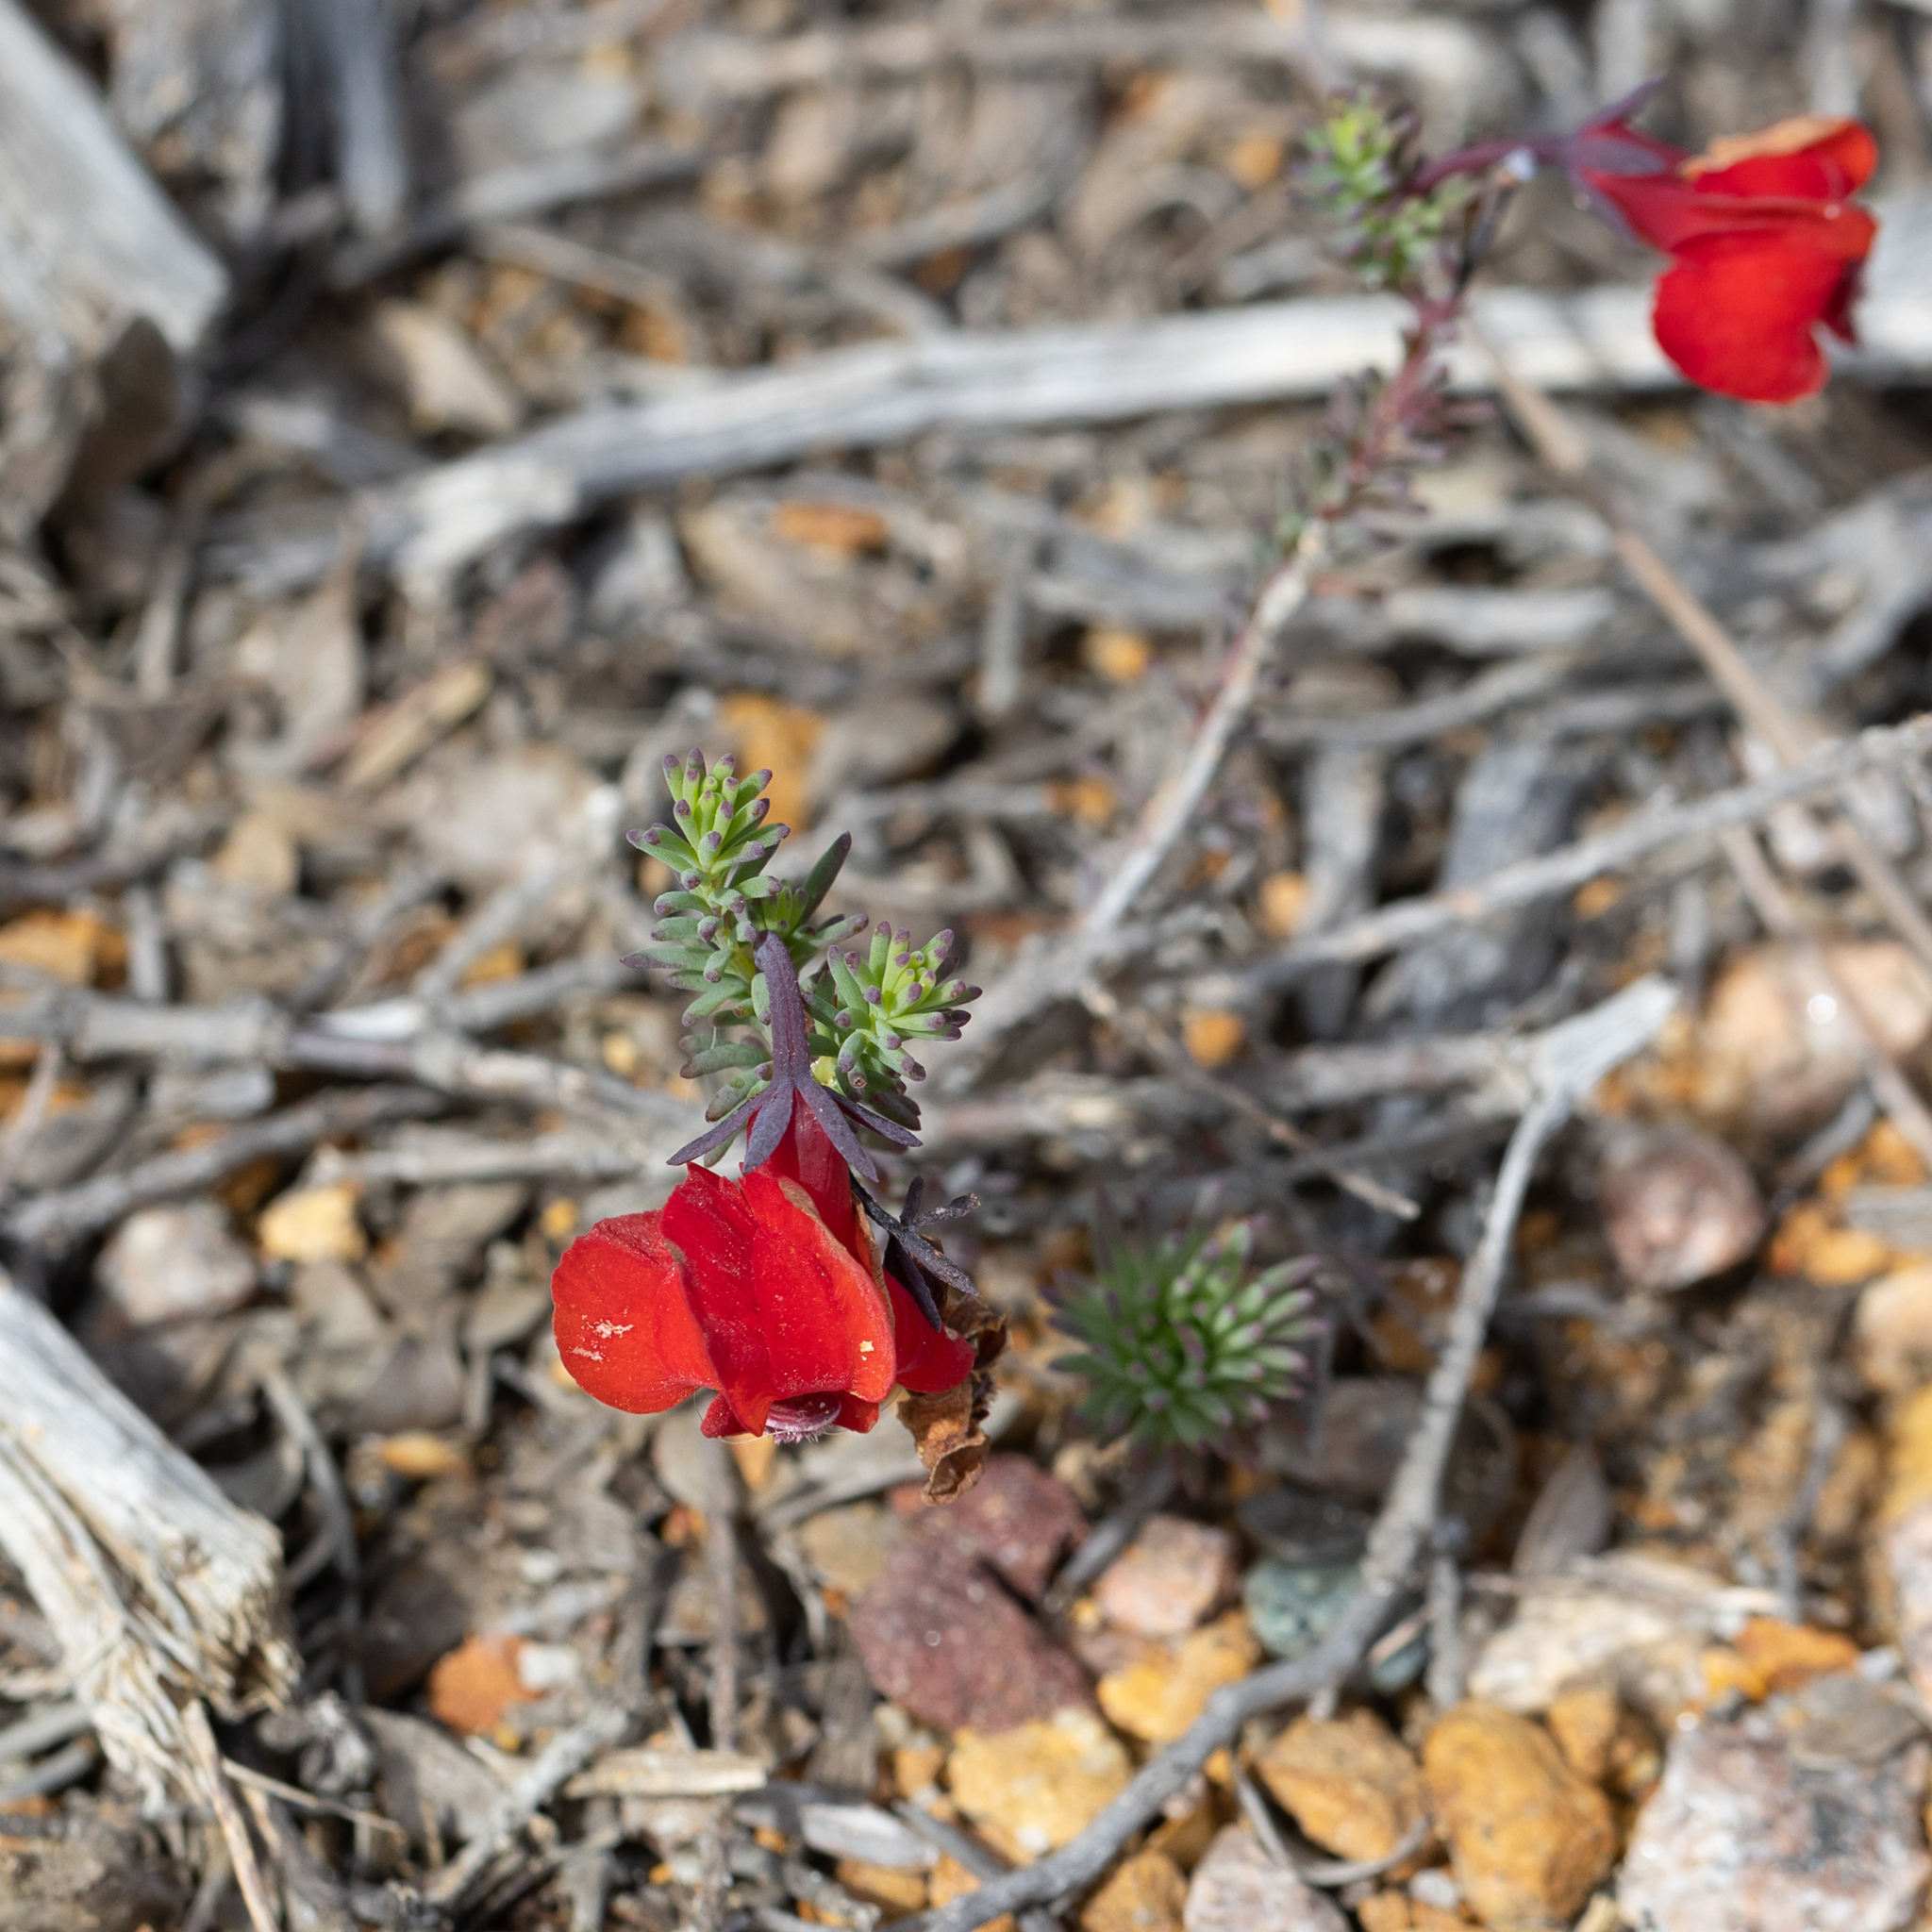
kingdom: Plantae
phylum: Tracheophyta
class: Magnoliopsida
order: Asterales
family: Goodeniaceae
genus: Lechenaultia
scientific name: Lechenaultia formosa
